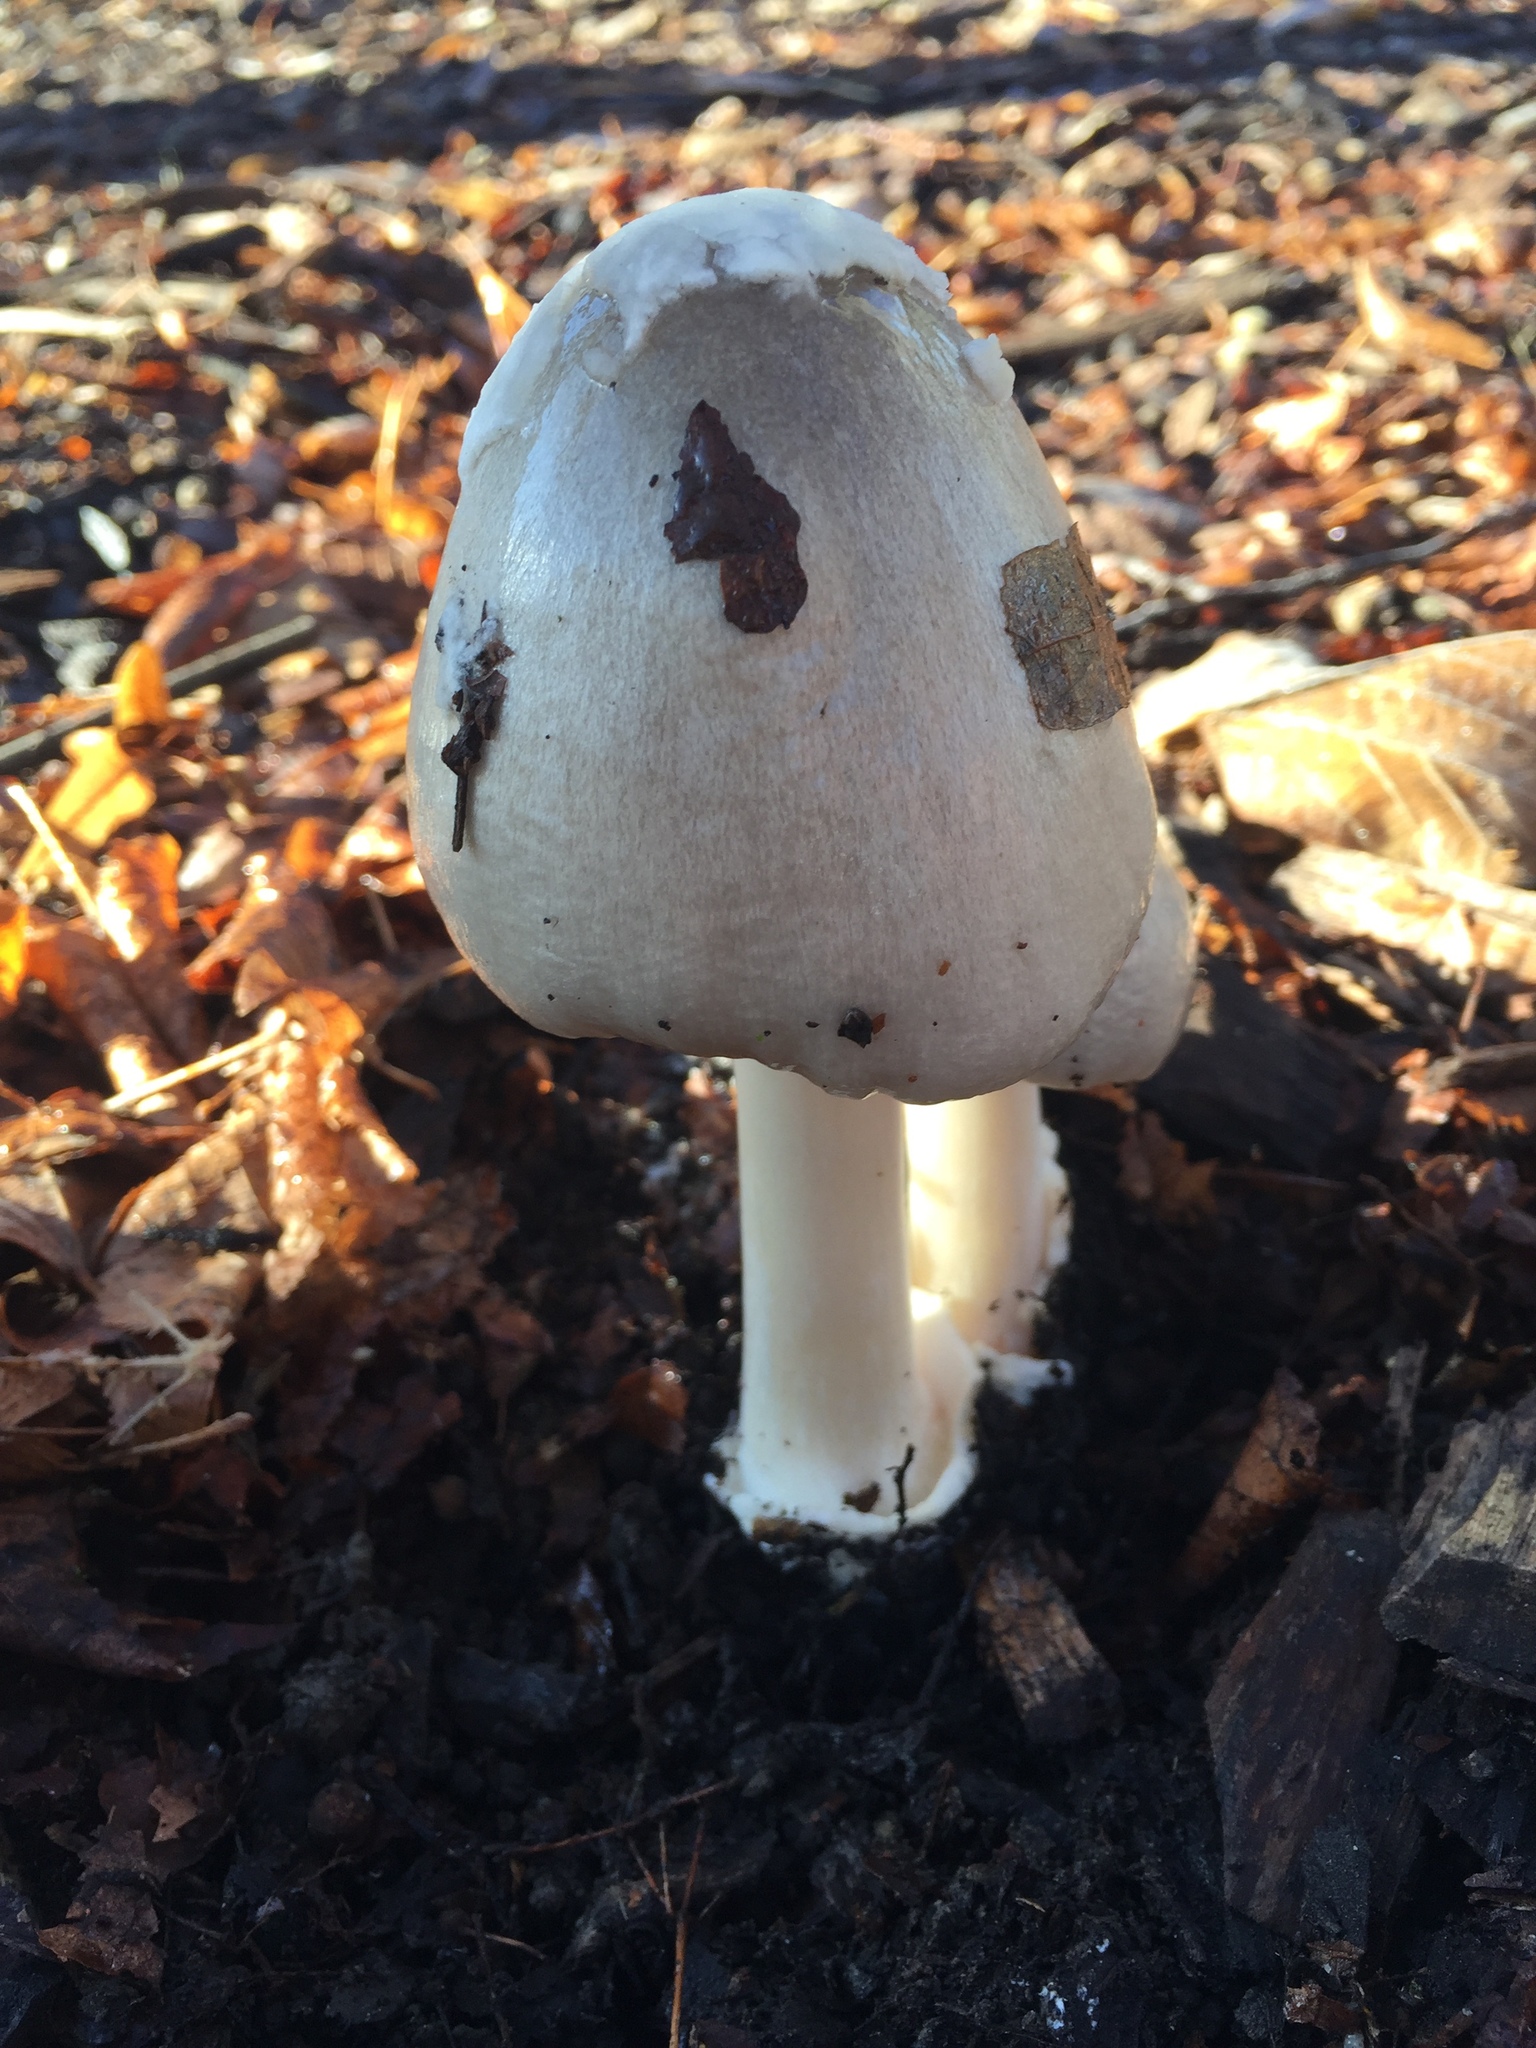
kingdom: Fungi
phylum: Basidiomycota
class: Agaricomycetes
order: Agaricales
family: Pluteaceae
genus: Volvopluteus
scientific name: Volvopluteus gloiocephalus
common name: Stubble rosegill
